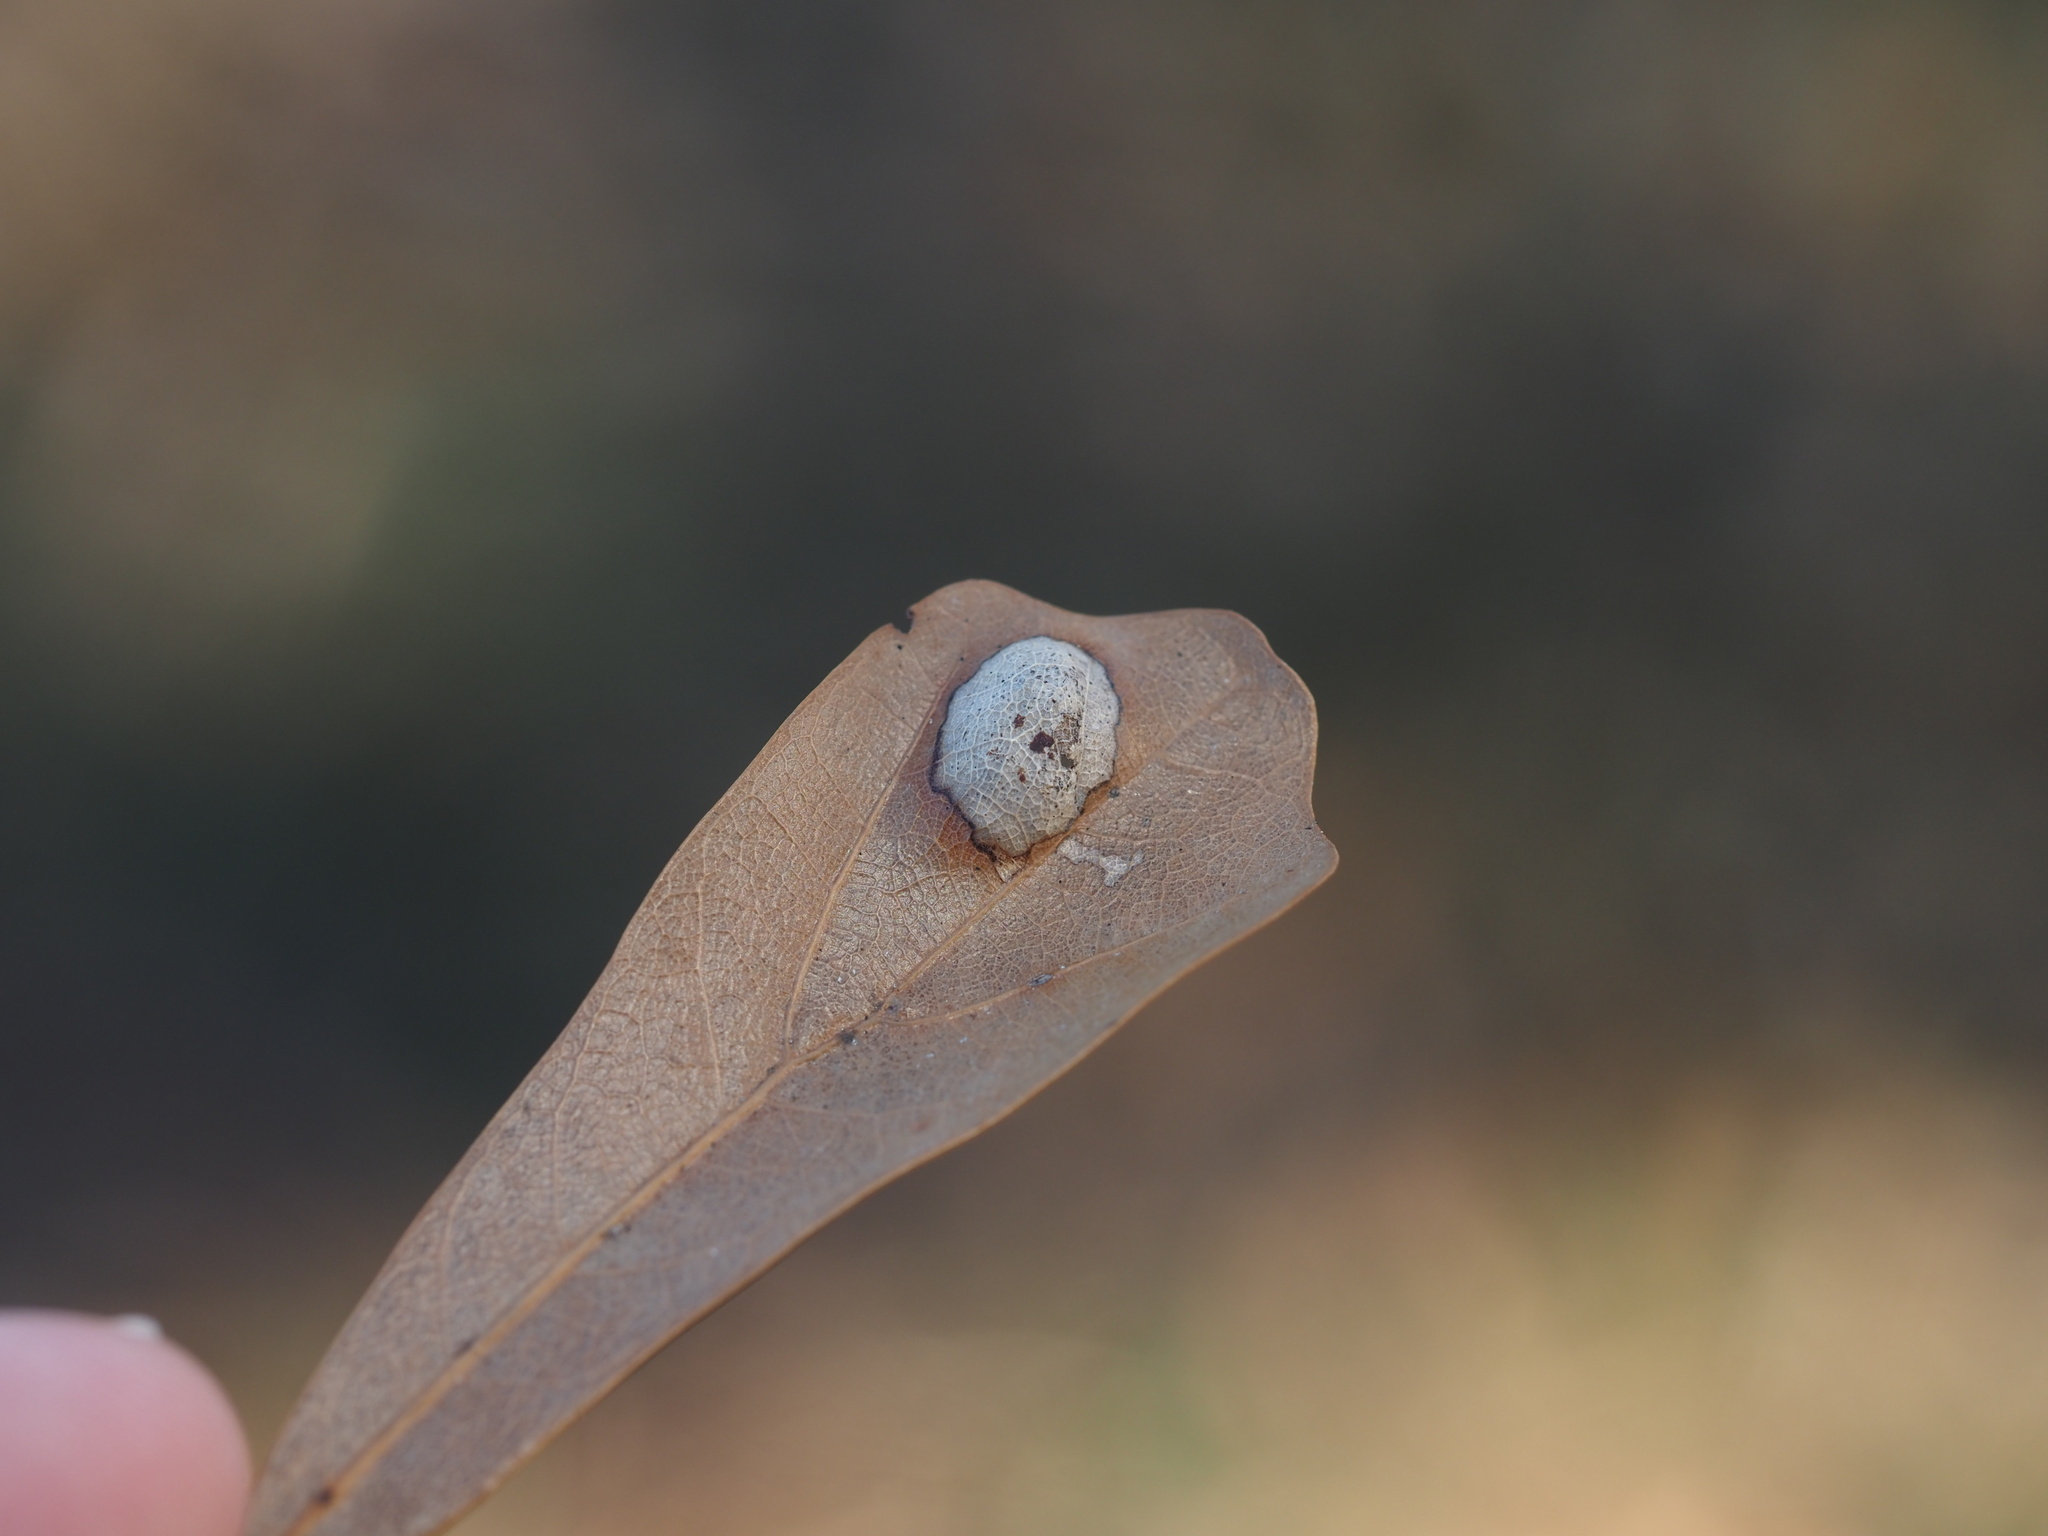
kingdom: Fungi
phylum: Ascomycota
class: Taphrinomycetes
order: Taphrinales
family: Taphrinaceae
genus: Taphrina
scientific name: Taphrina caerulescens
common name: Oak leaf blister
